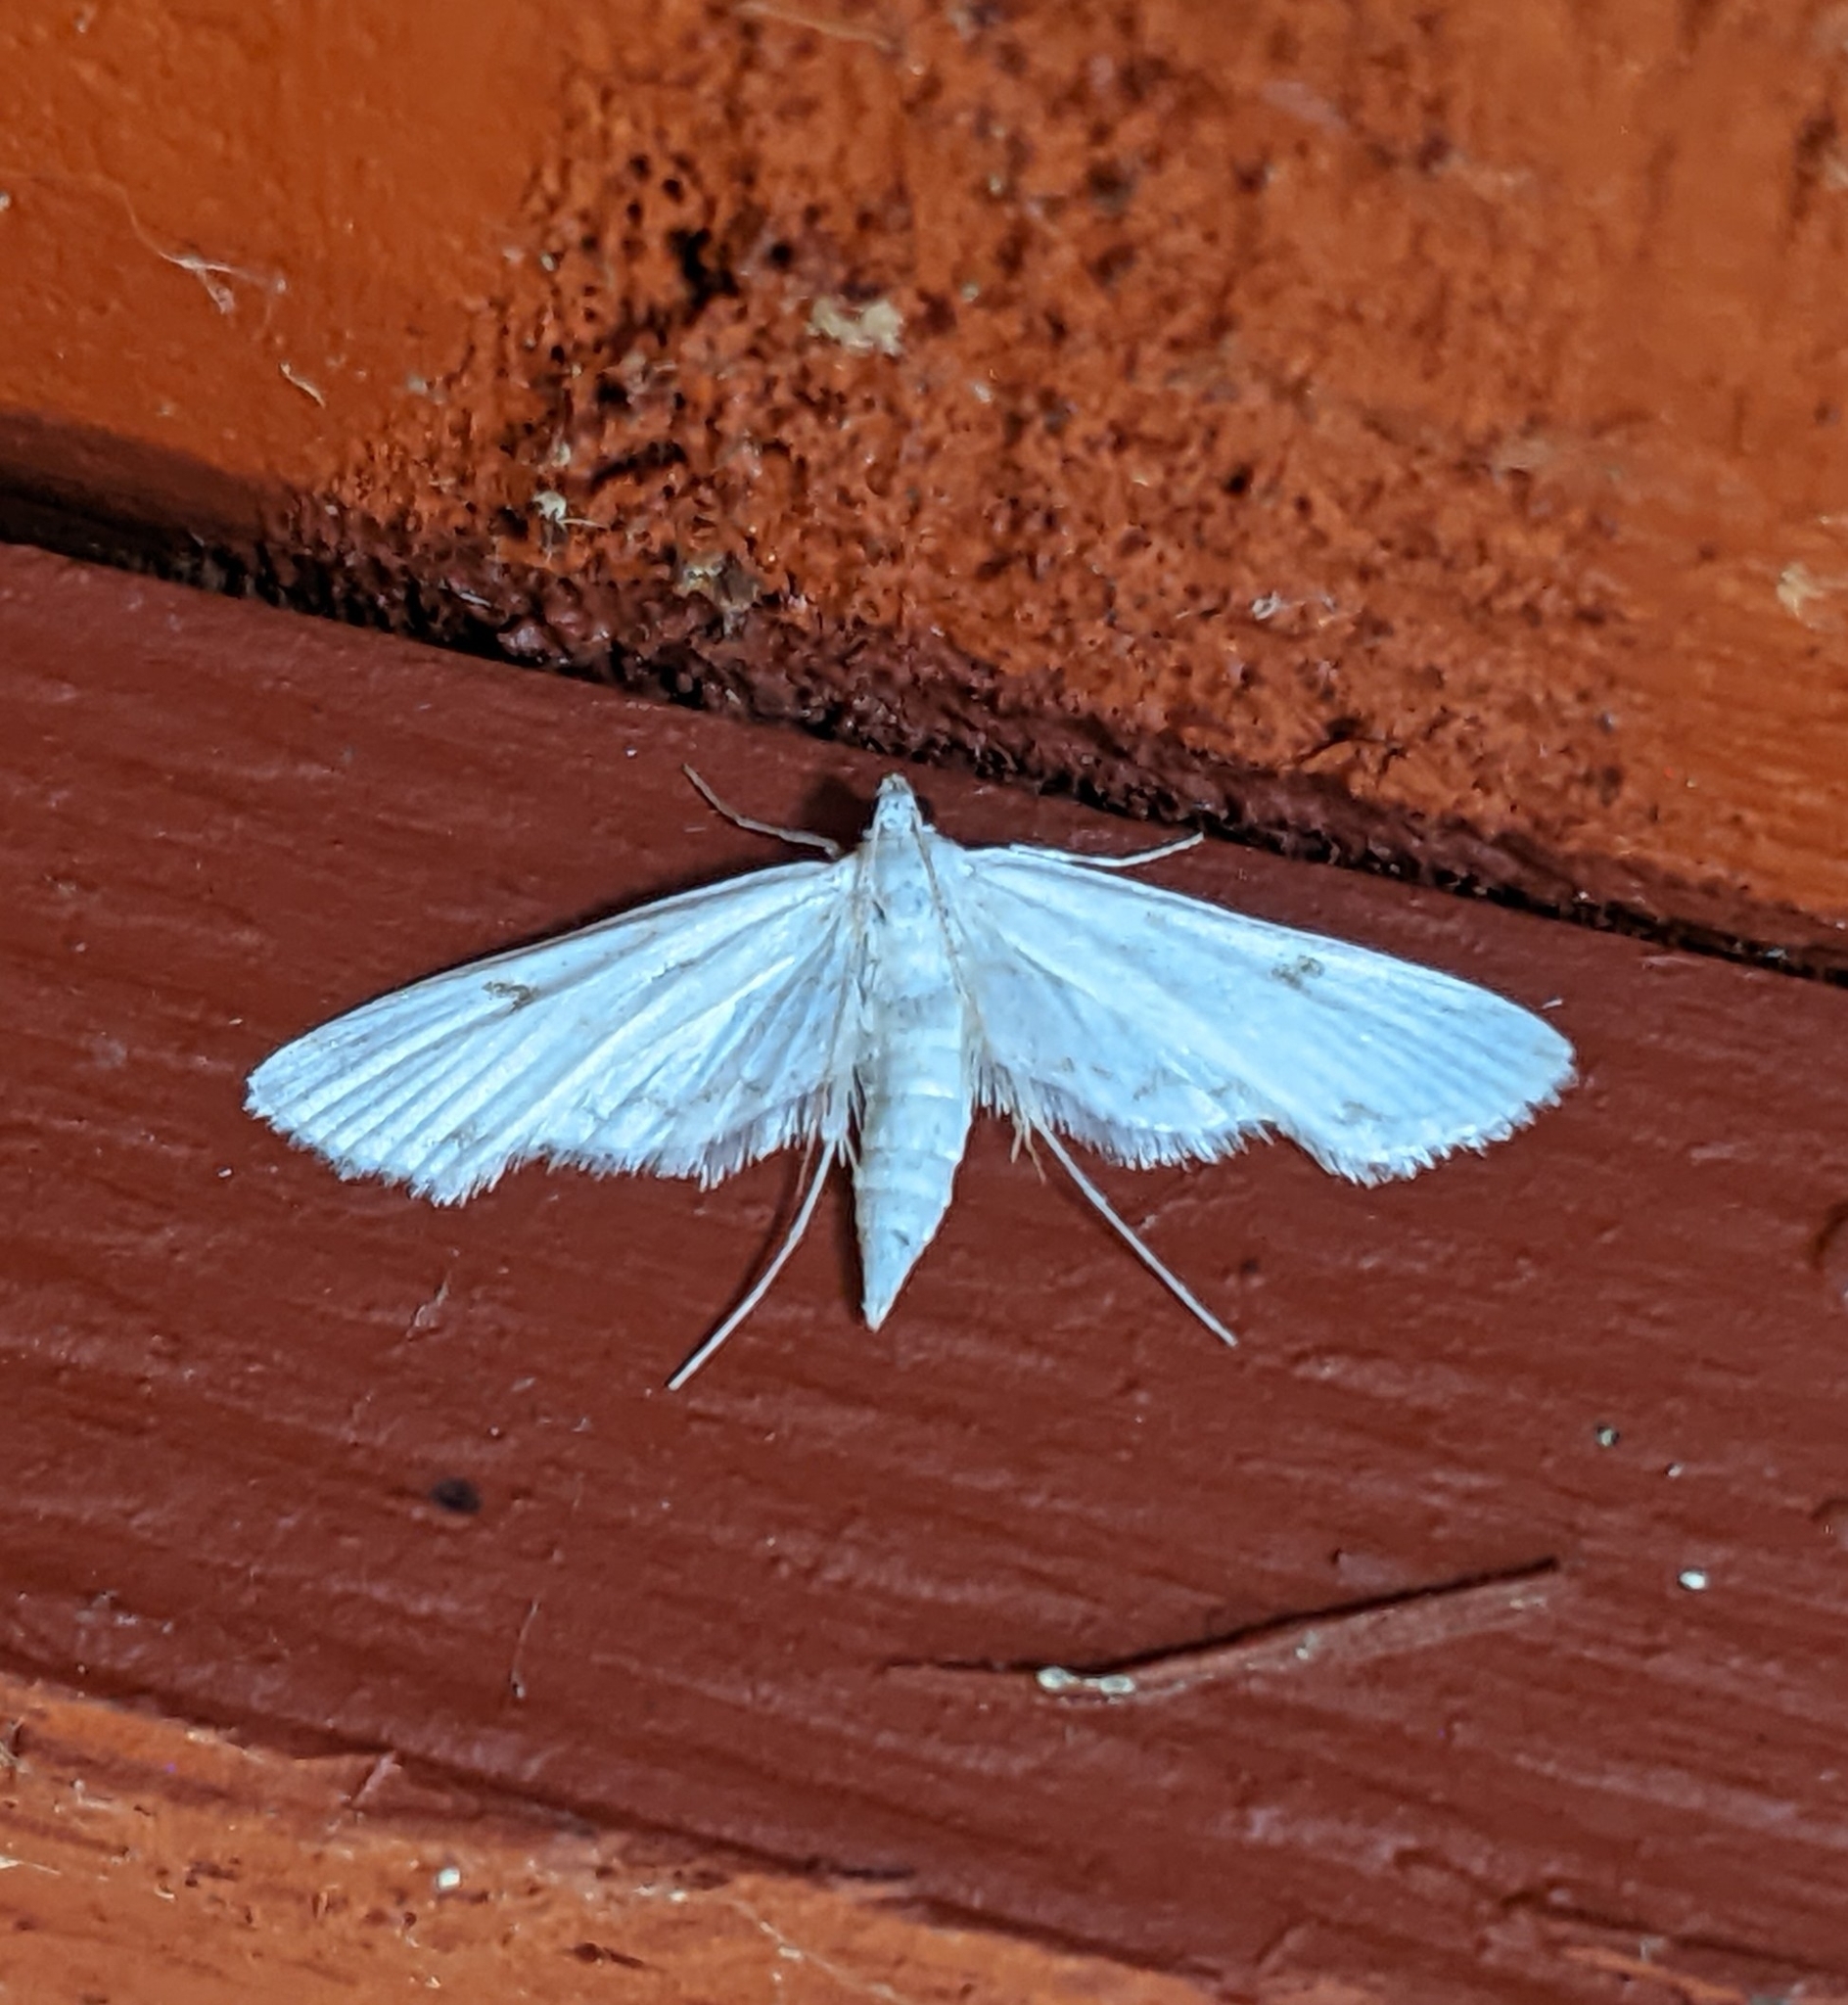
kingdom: Animalia
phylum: Arthropoda
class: Insecta
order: Lepidoptera
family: Crambidae
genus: Parapoynx
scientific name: Parapoynx allionealis
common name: Bladderwort casemaker
